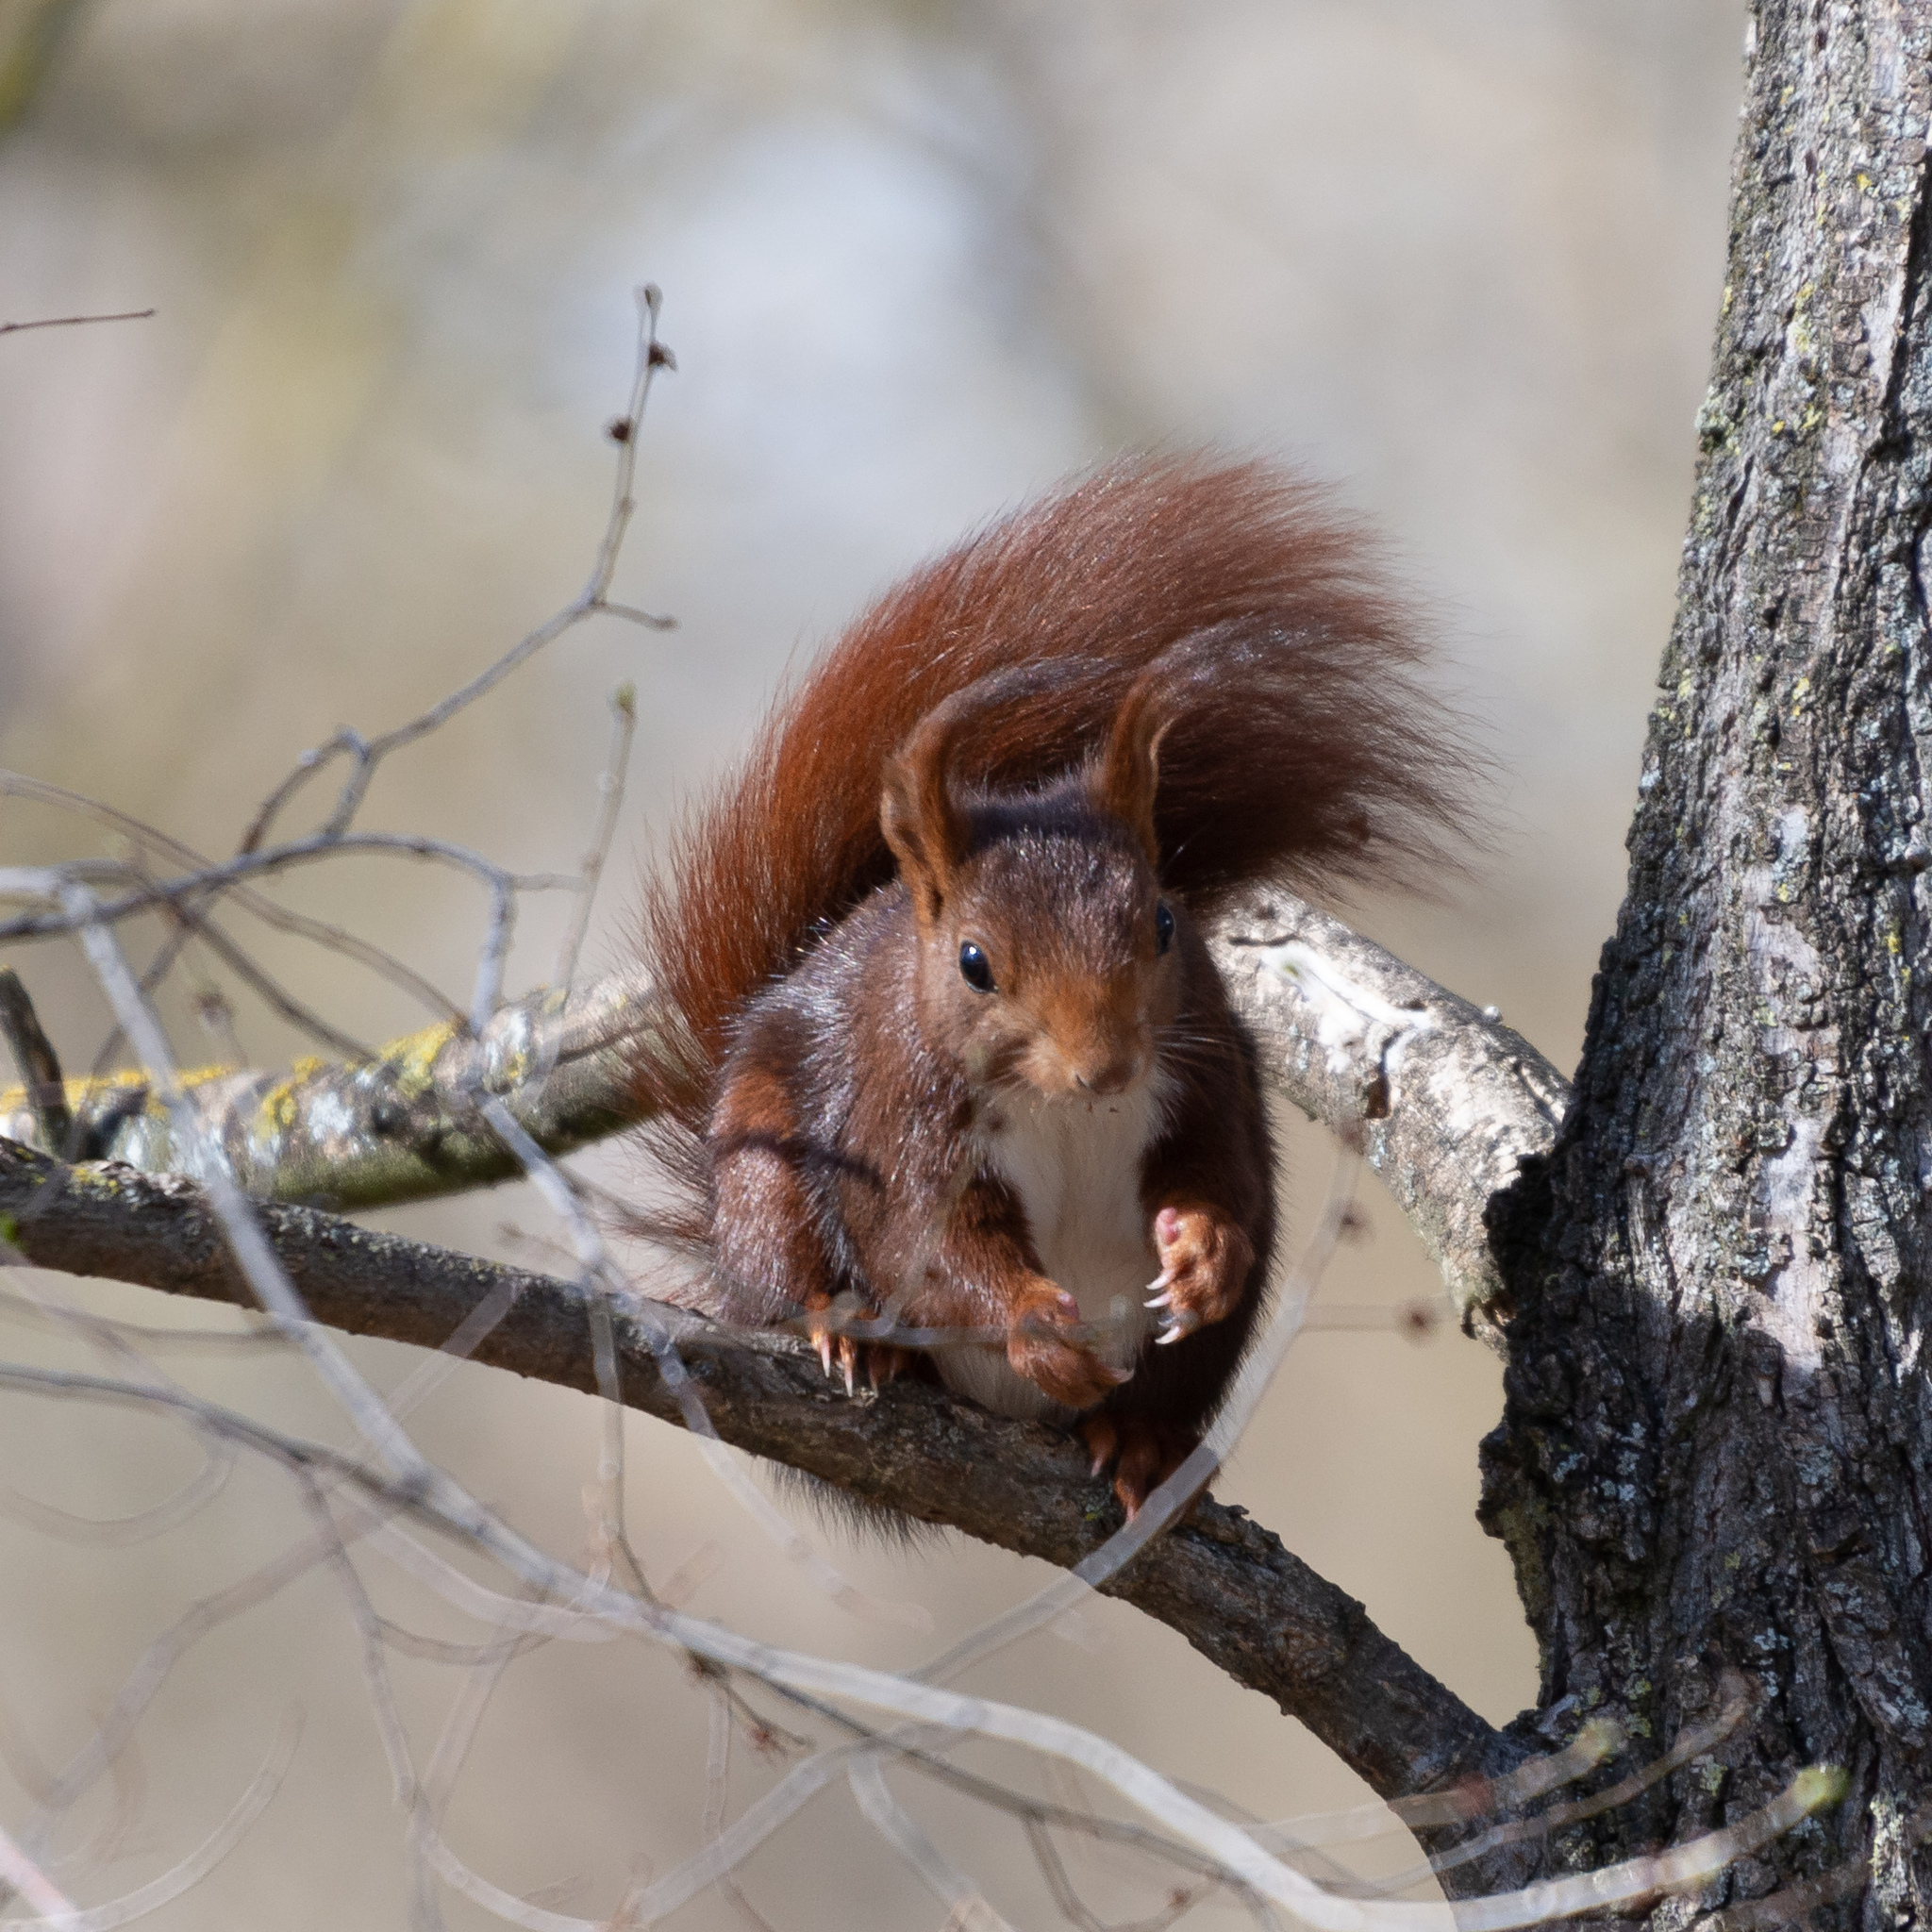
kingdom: Animalia
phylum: Chordata
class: Mammalia
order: Rodentia
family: Sciuridae
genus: Sciurus
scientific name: Sciurus vulgaris
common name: Eurasian red squirrel
